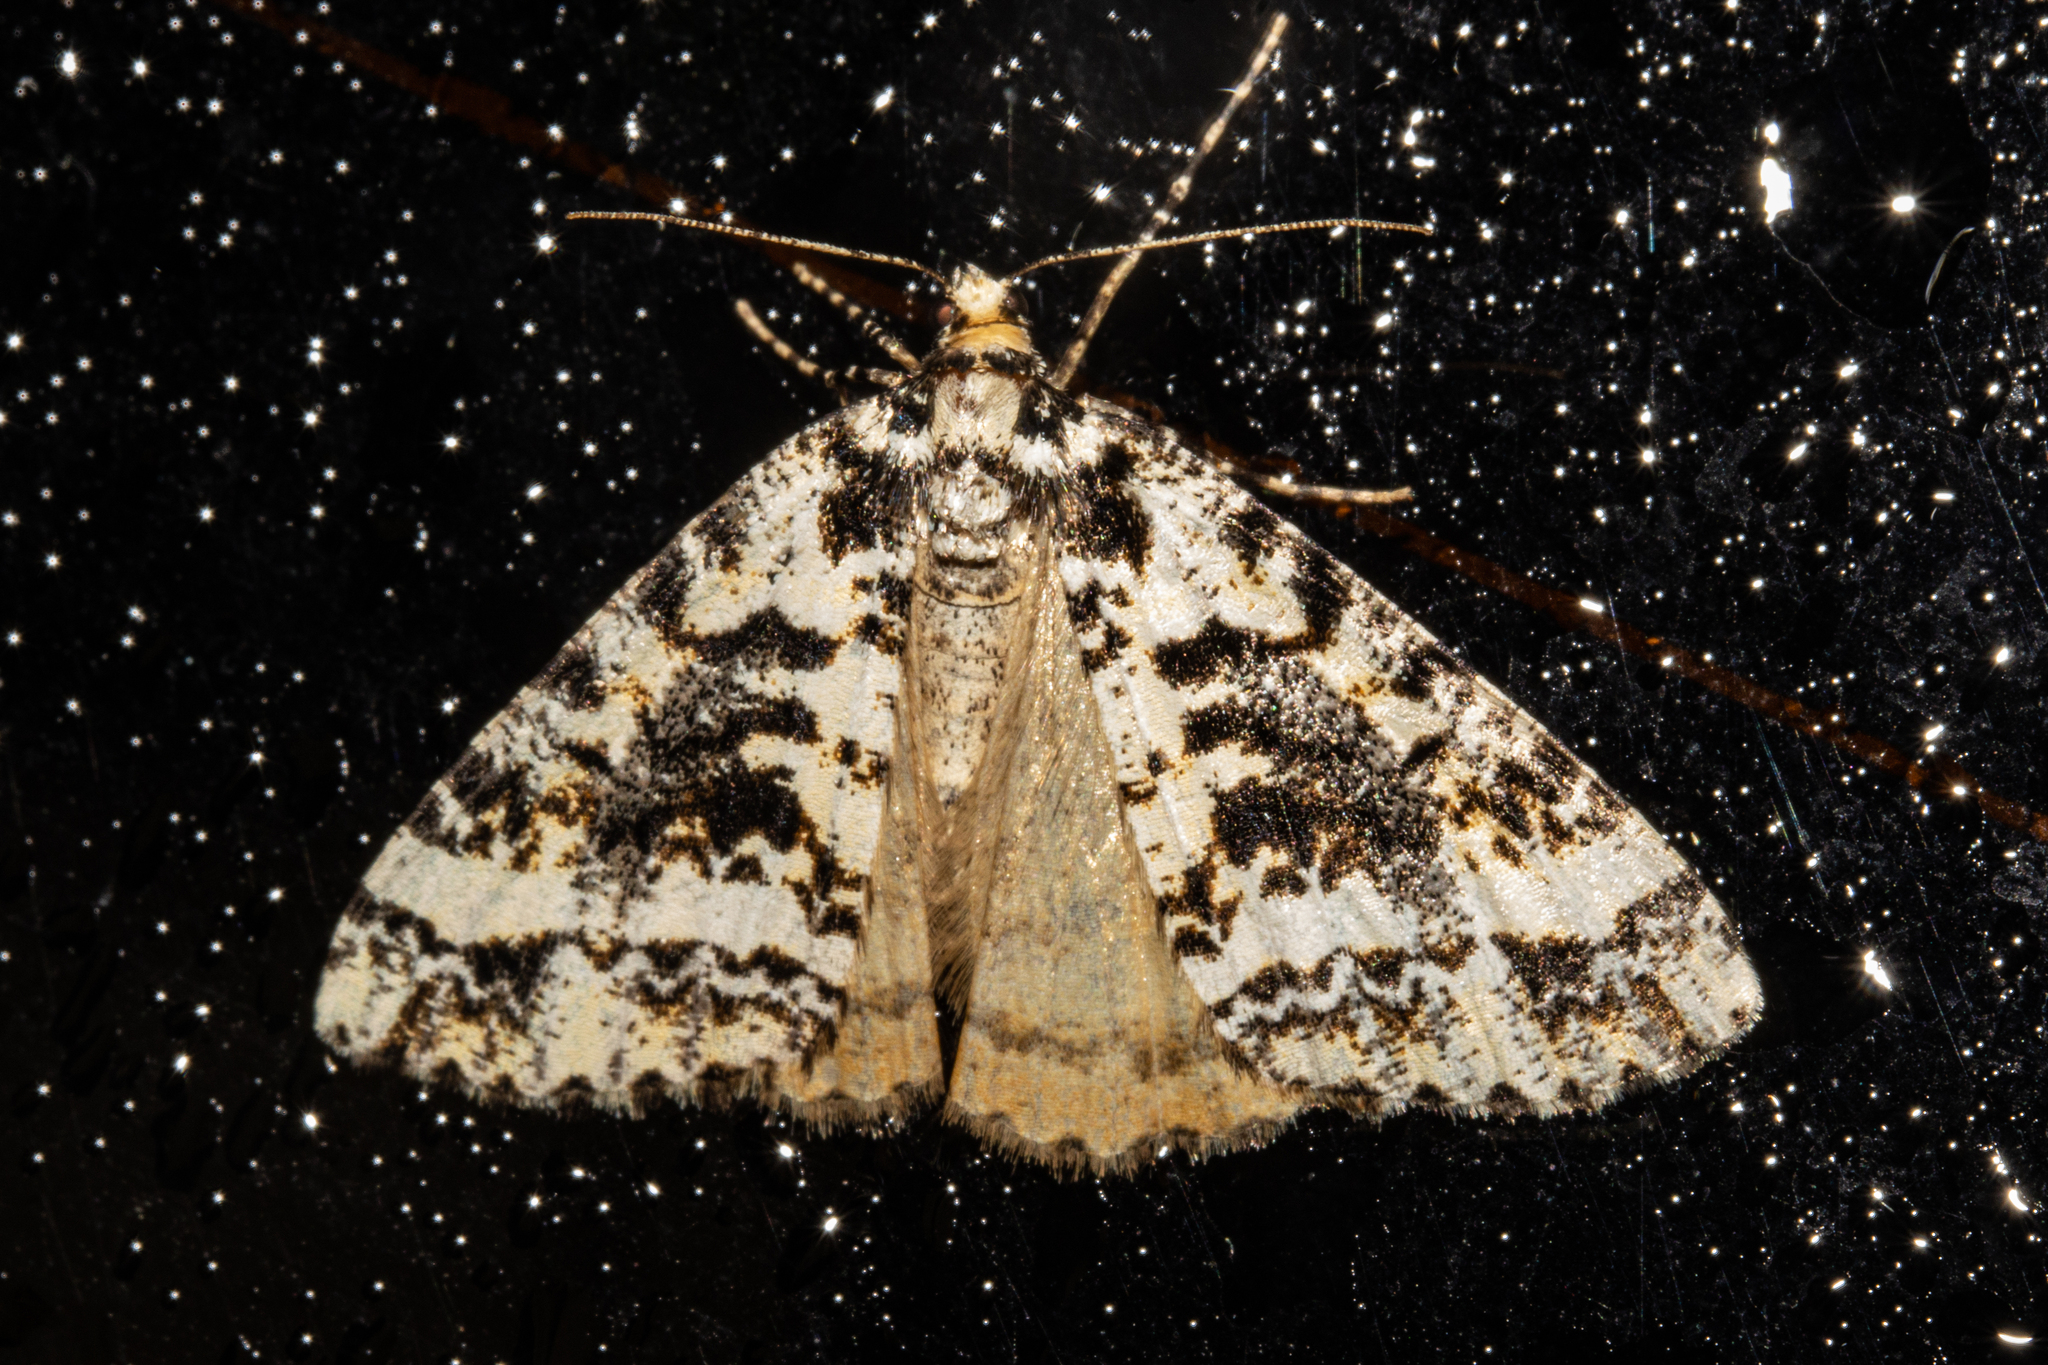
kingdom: Animalia
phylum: Arthropoda
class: Insecta
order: Lepidoptera
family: Geometridae
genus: Pseudocoremia
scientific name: Pseudocoremia leucelaea
